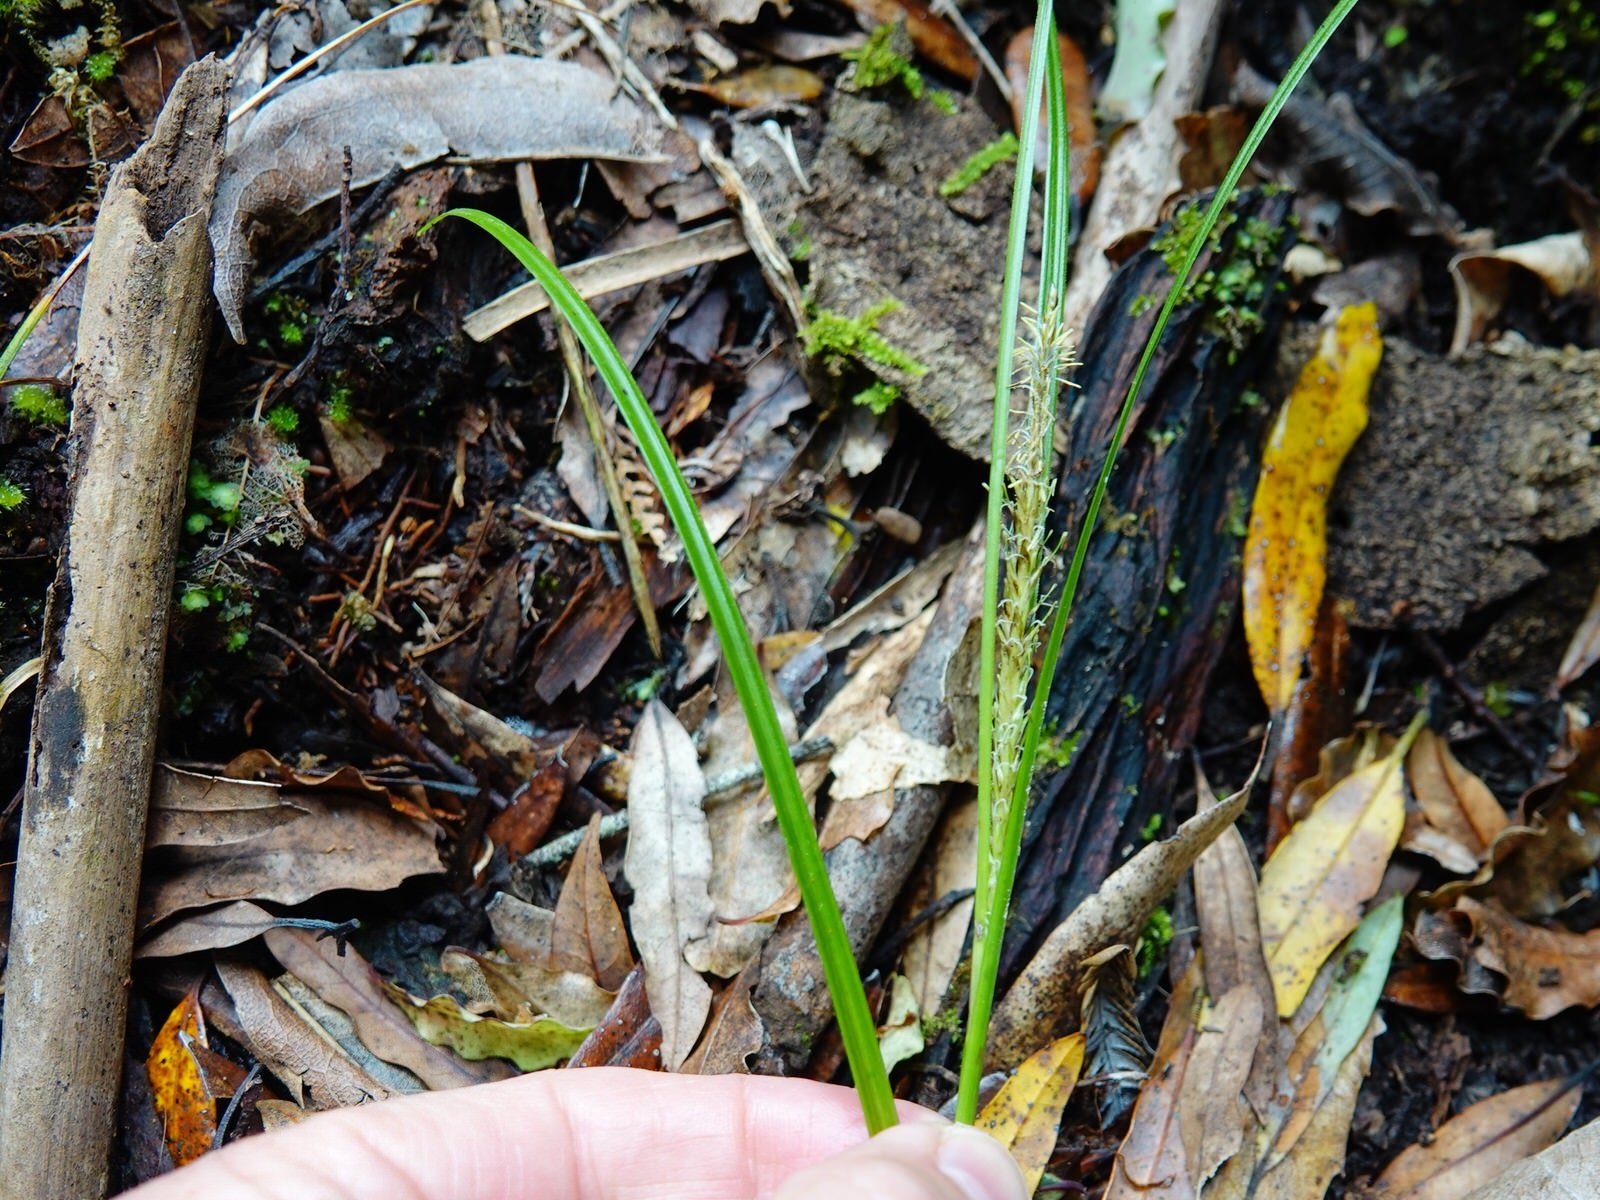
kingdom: Plantae
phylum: Tracheophyta
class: Liliopsida
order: Poales
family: Cyperaceae
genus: Carex
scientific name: Carex uncinata
